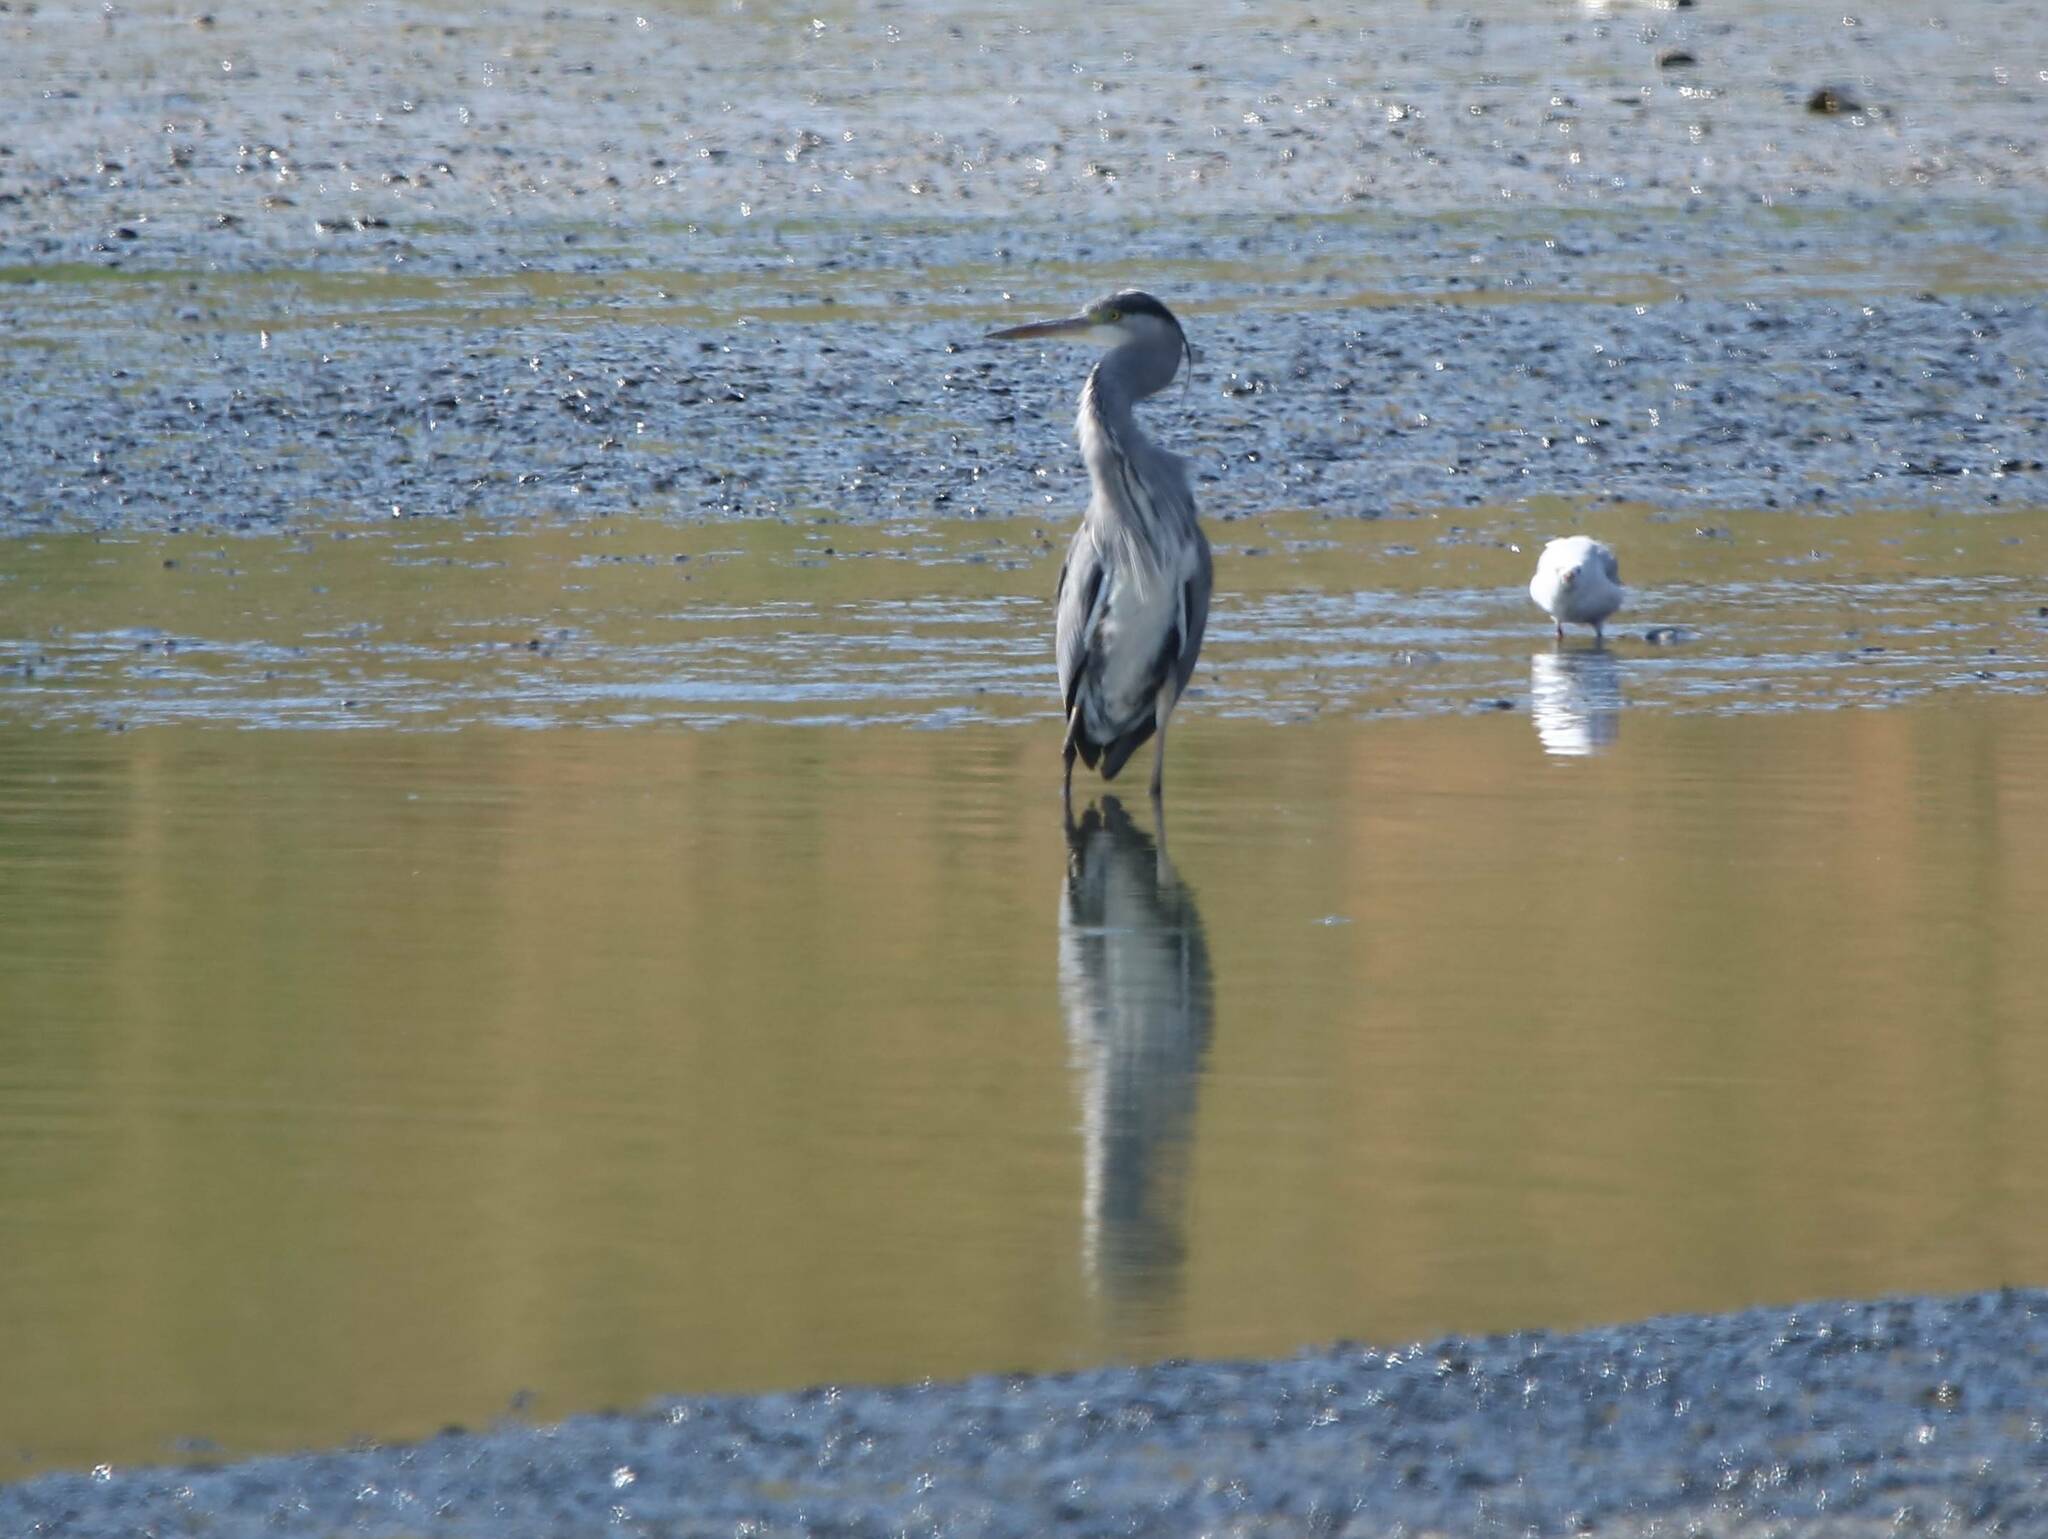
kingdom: Animalia
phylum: Chordata
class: Aves
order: Pelecaniformes
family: Ardeidae
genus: Ardea
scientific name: Ardea cinerea
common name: Grey heron
